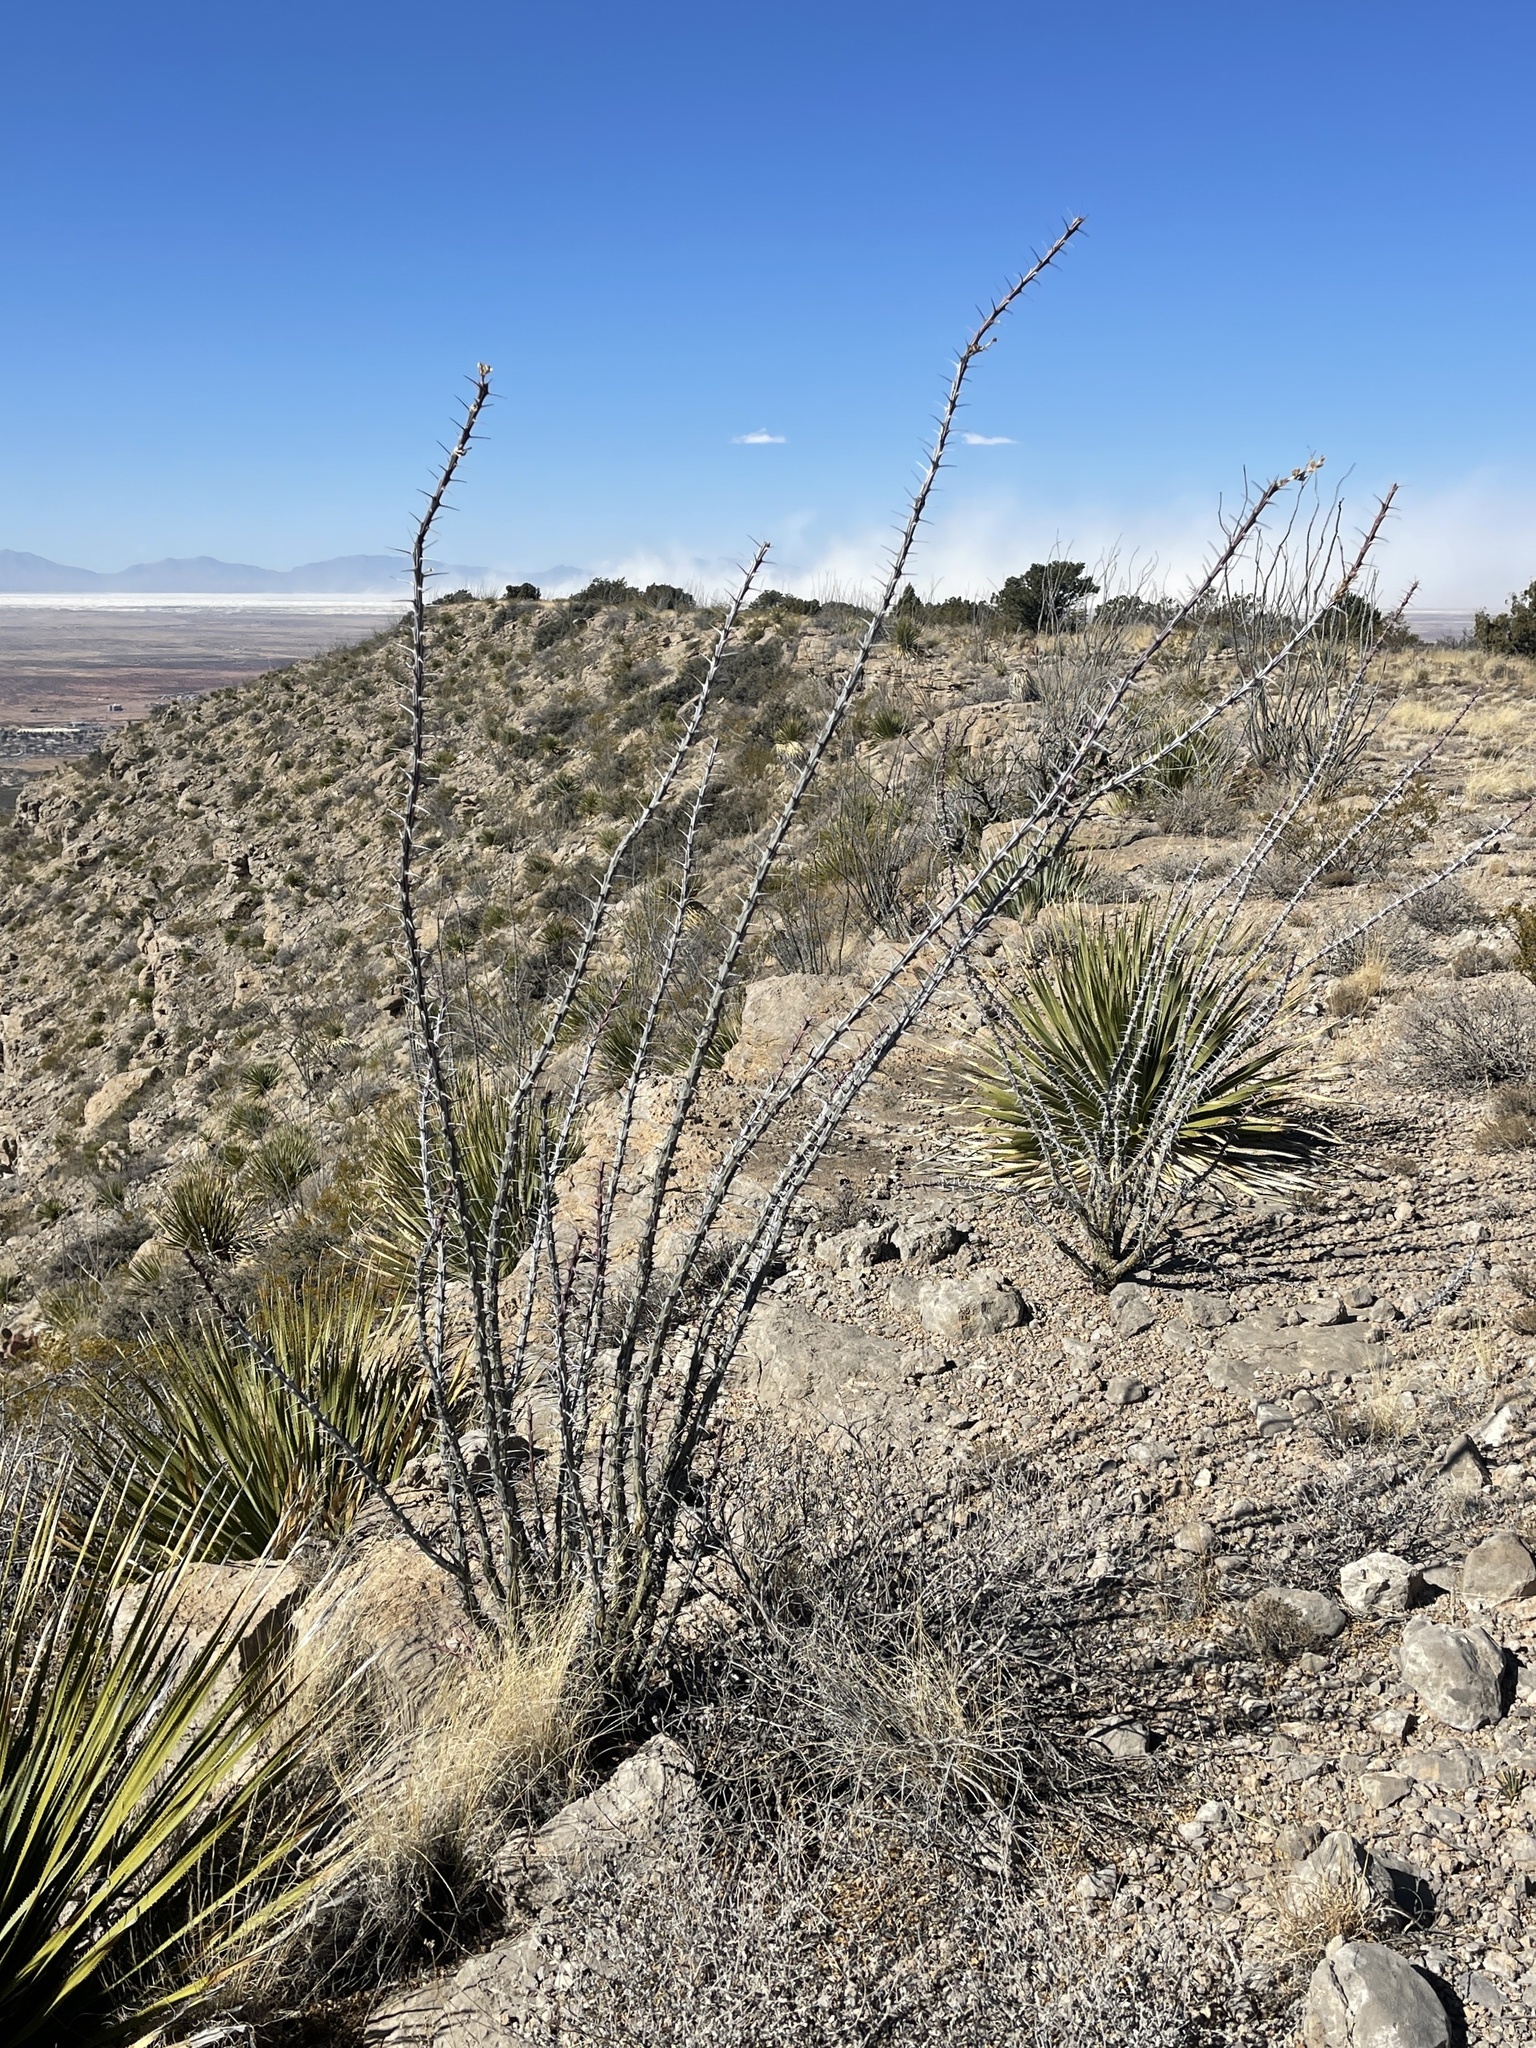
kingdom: Plantae
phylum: Tracheophyta
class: Magnoliopsida
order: Ericales
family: Fouquieriaceae
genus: Fouquieria
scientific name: Fouquieria splendens
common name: Vine-cactus
